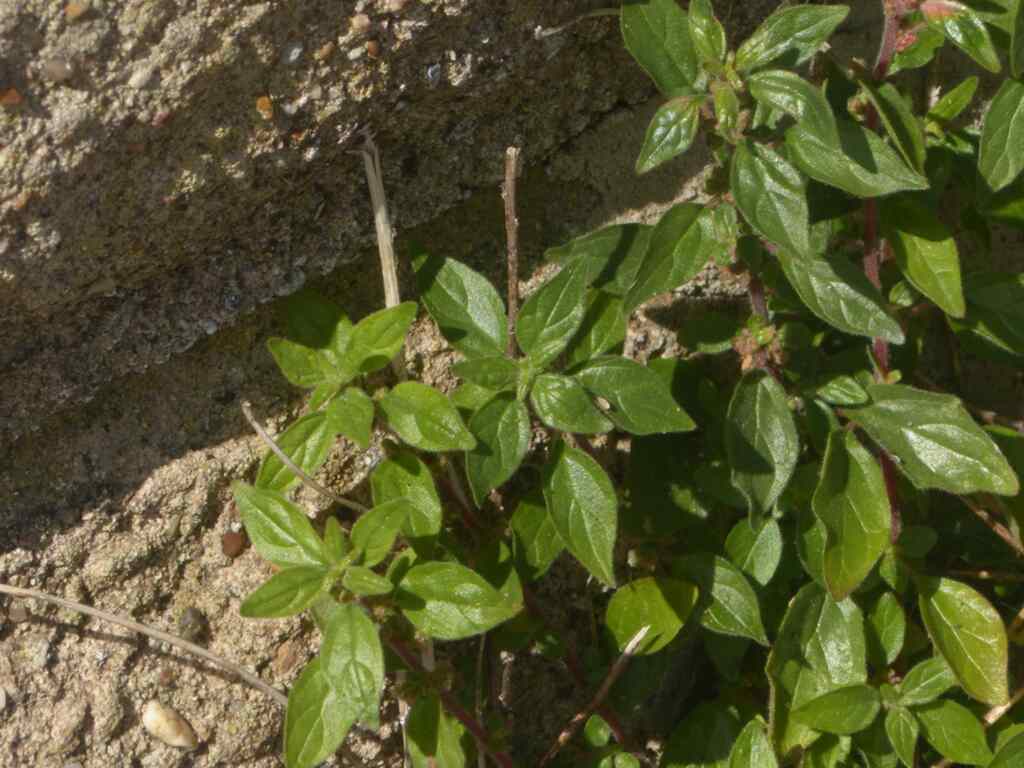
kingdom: Plantae
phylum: Tracheophyta
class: Magnoliopsida
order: Rosales
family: Urticaceae
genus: Parietaria
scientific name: Parietaria judaica
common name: Pellitory-of-the-wall
